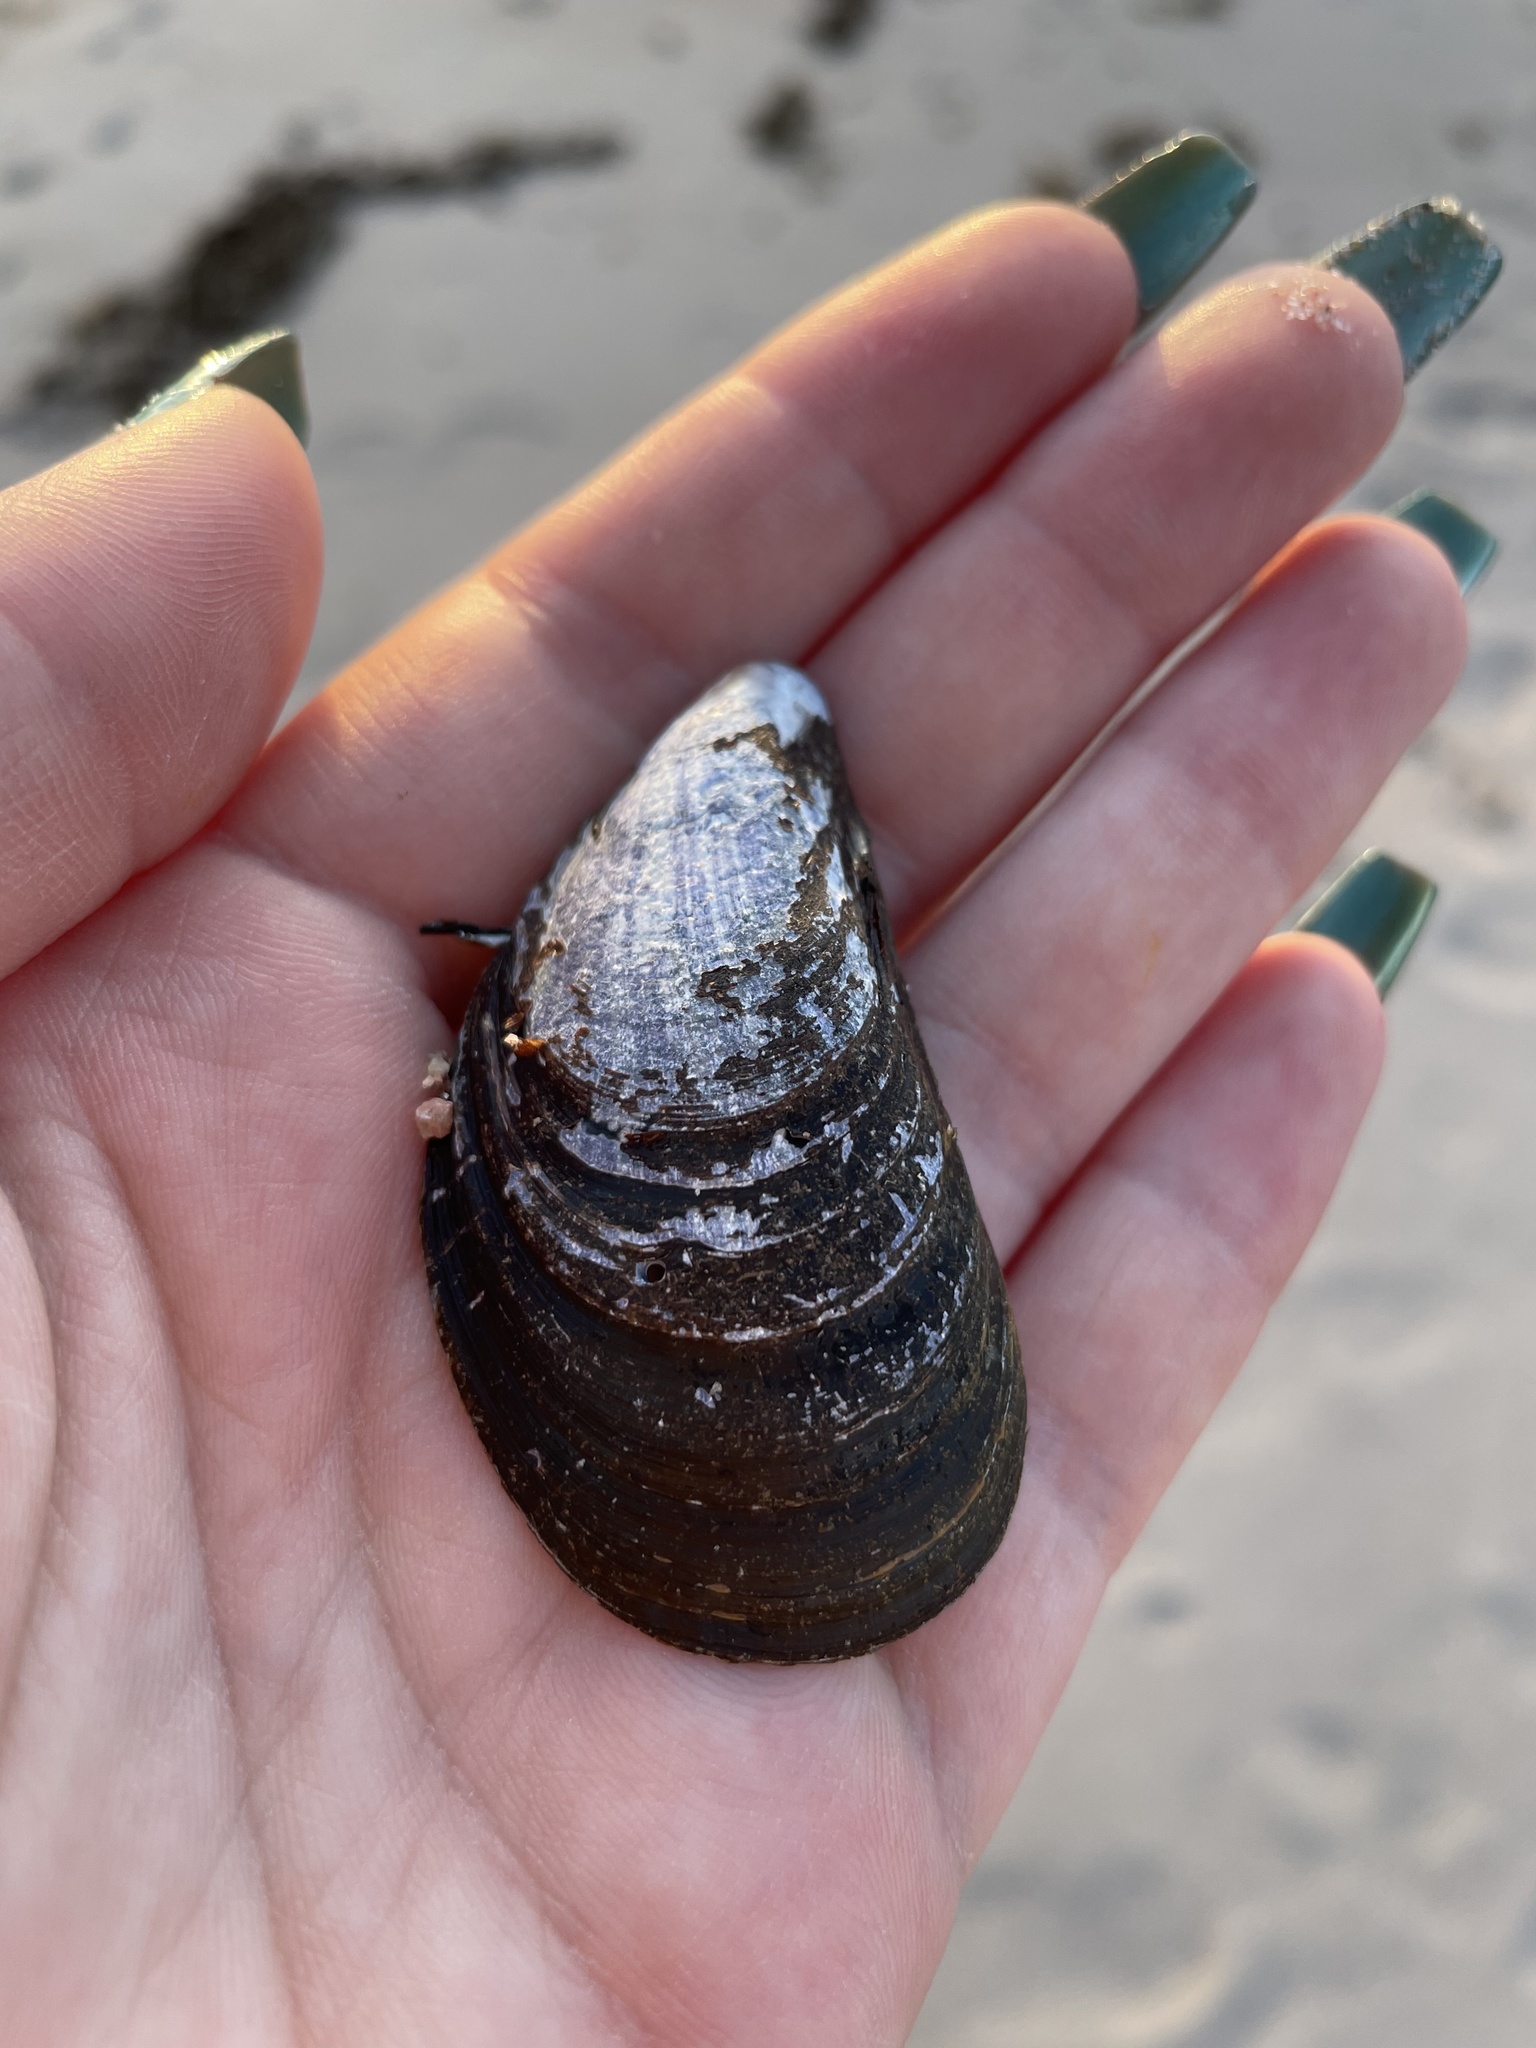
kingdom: Animalia
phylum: Mollusca
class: Bivalvia
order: Mytilida
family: Mytilidae
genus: Mytilus
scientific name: Mytilus edulis
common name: Blue mussel
